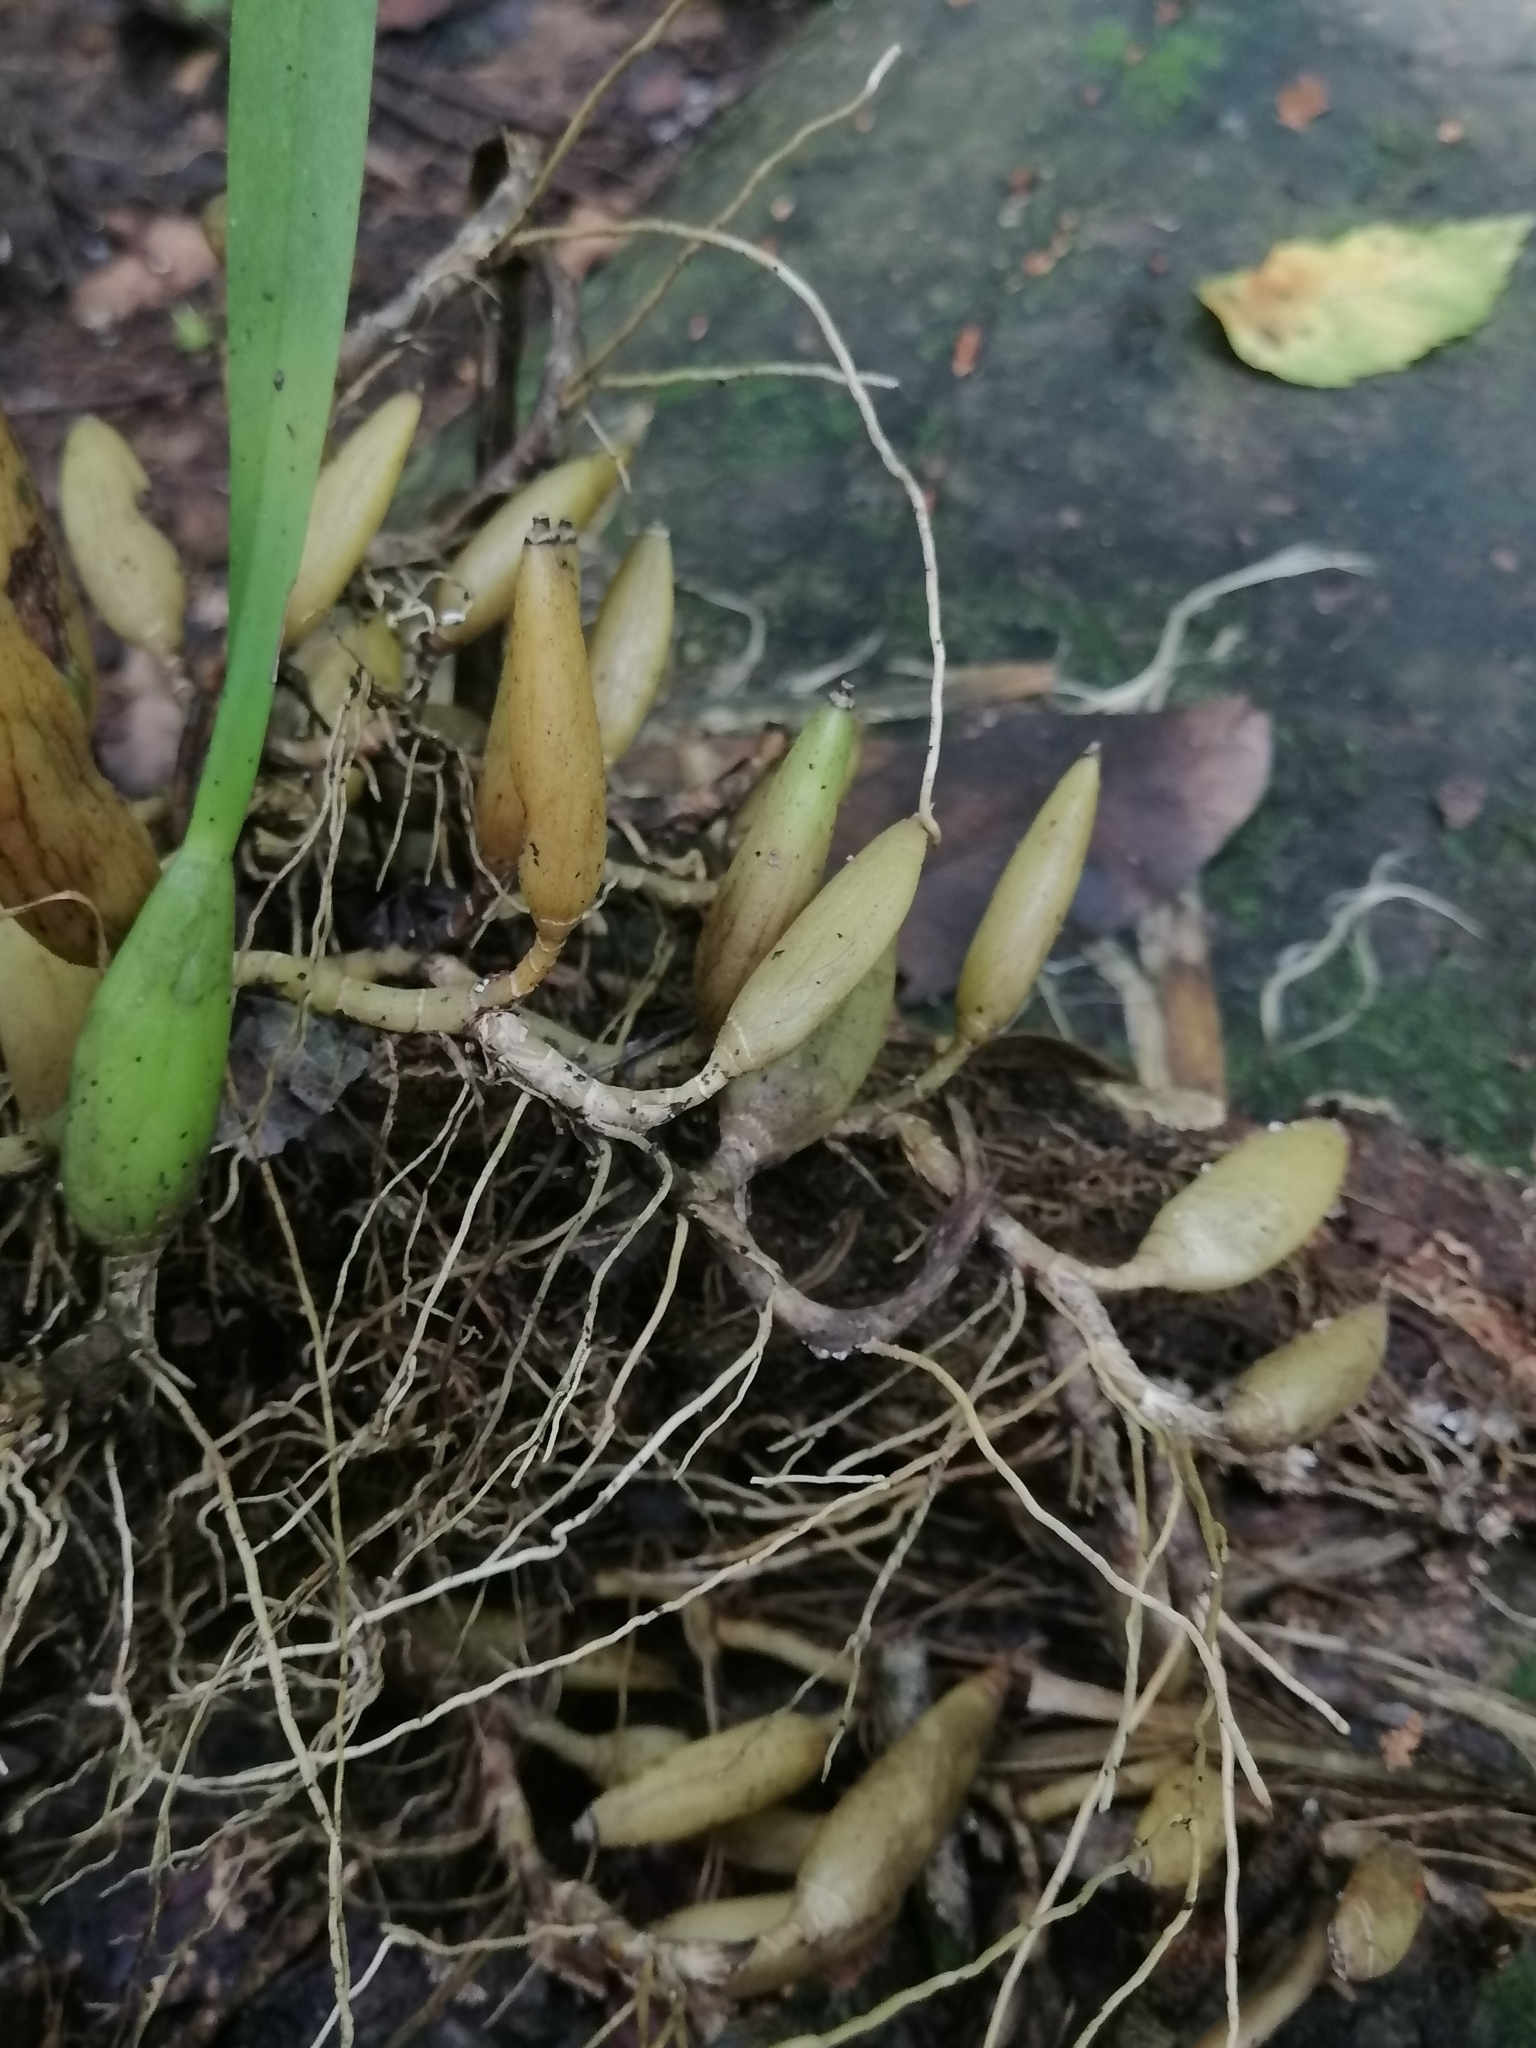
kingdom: Plantae
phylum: Tracheophyta
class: Liliopsida
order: Asparagales
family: Orchidaceae
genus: Nidema
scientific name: Nidema boothii
